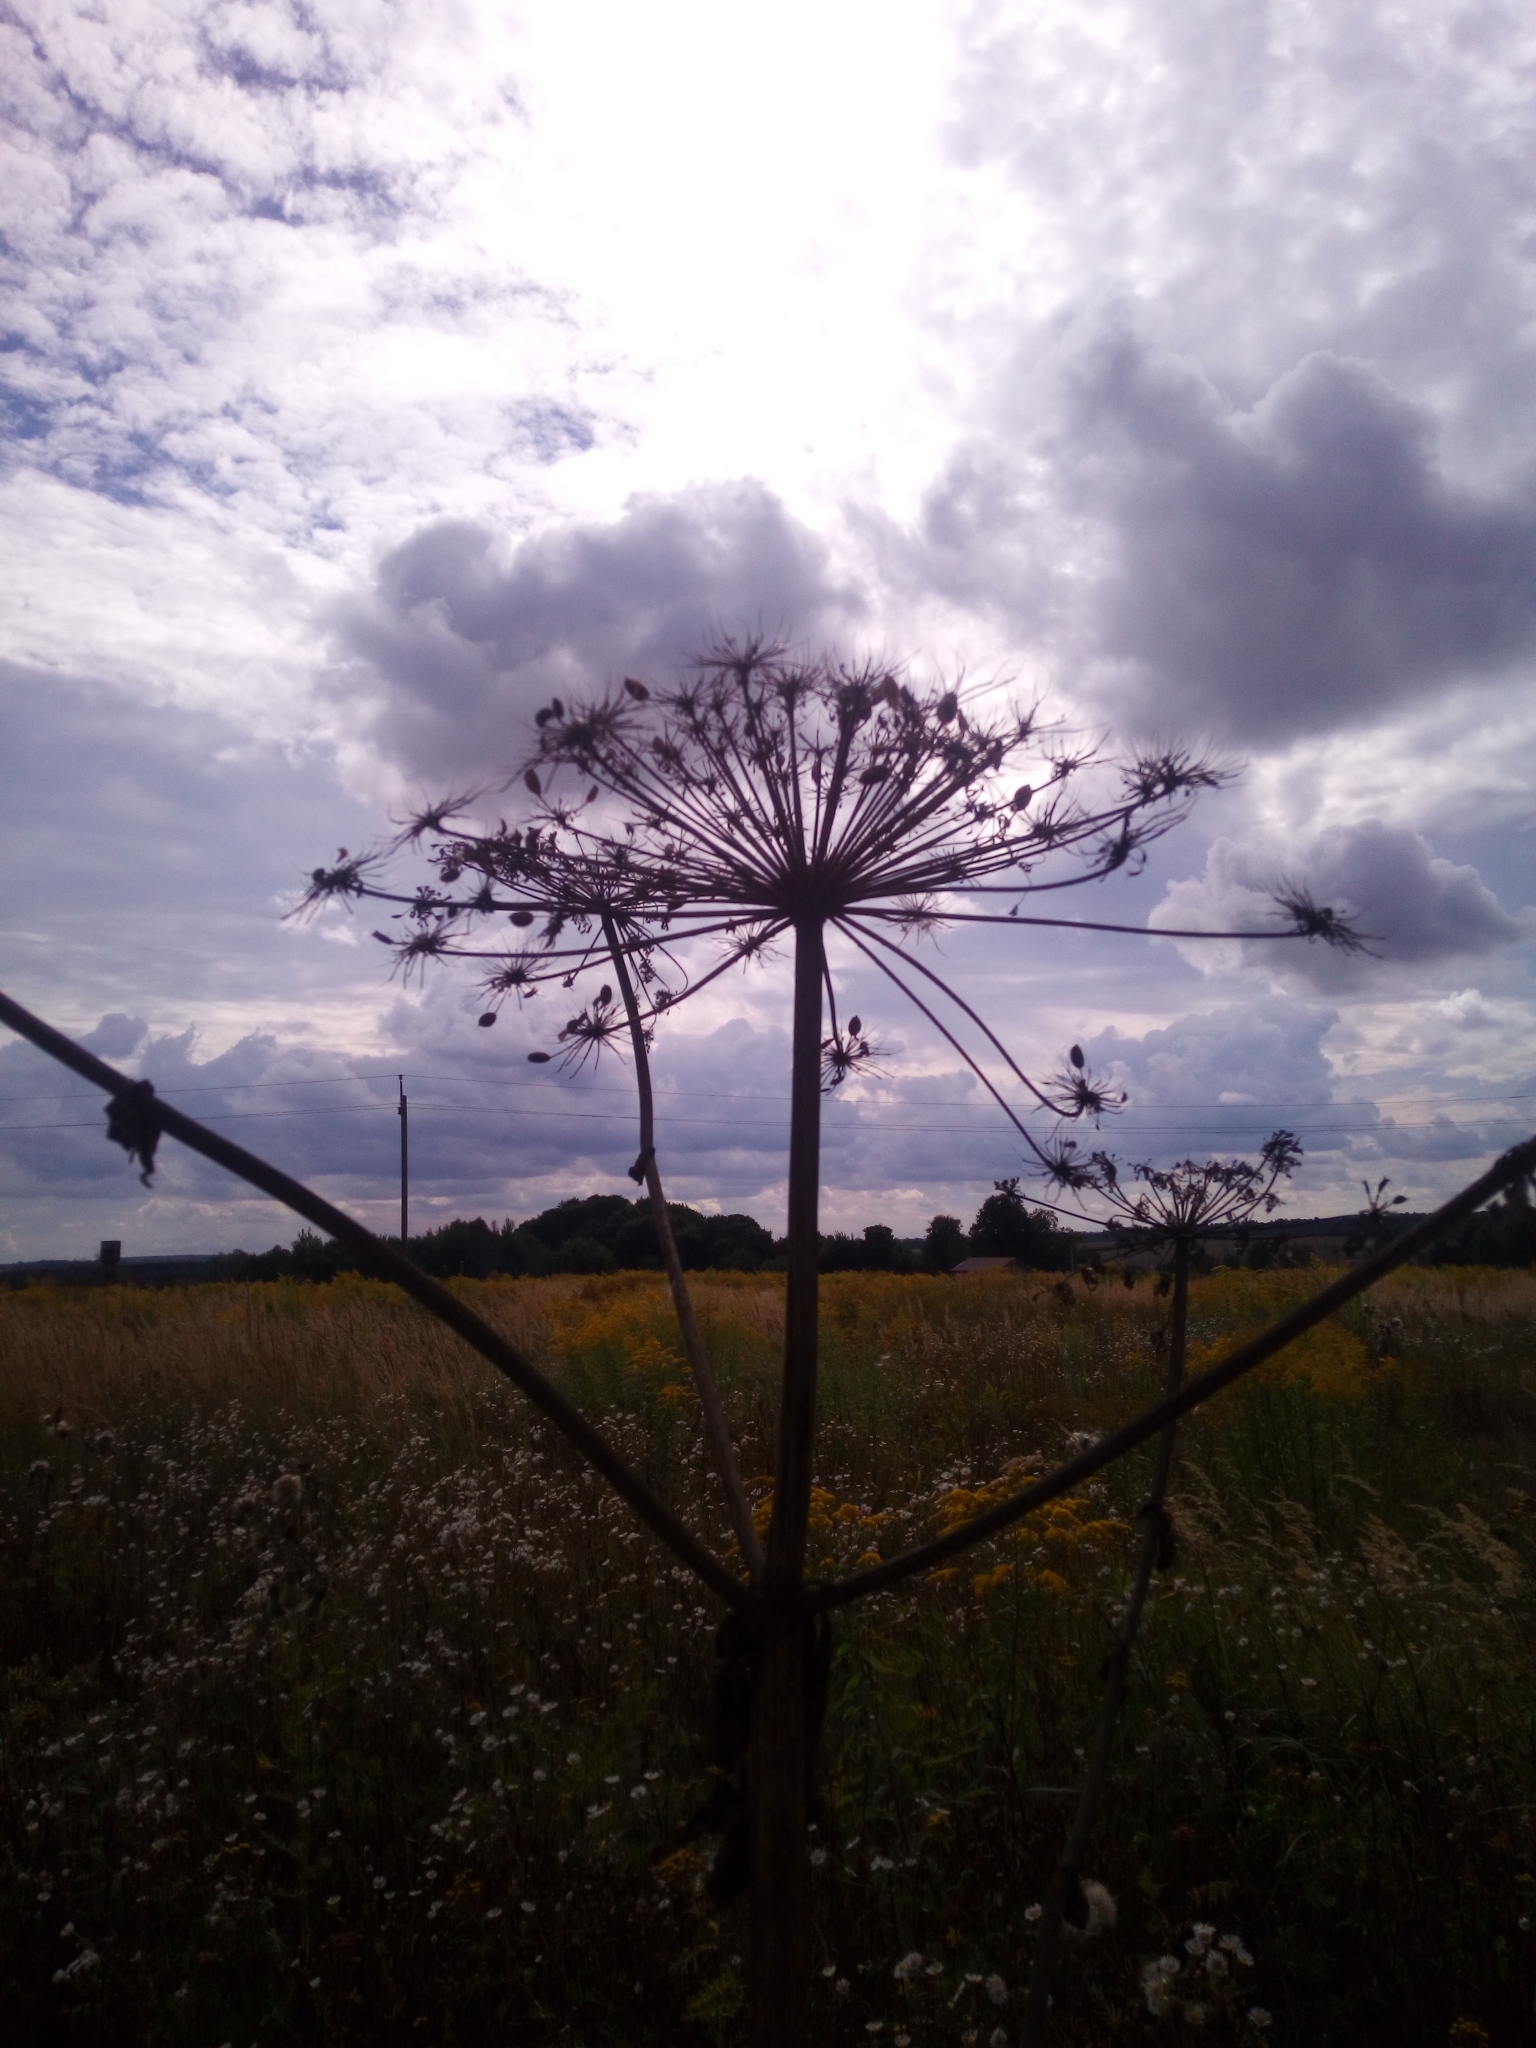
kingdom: Plantae
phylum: Tracheophyta
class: Magnoliopsida
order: Apiales
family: Apiaceae
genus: Heracleum
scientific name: Heracleum sosnowskyi
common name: Sosnowsky's hogweed
